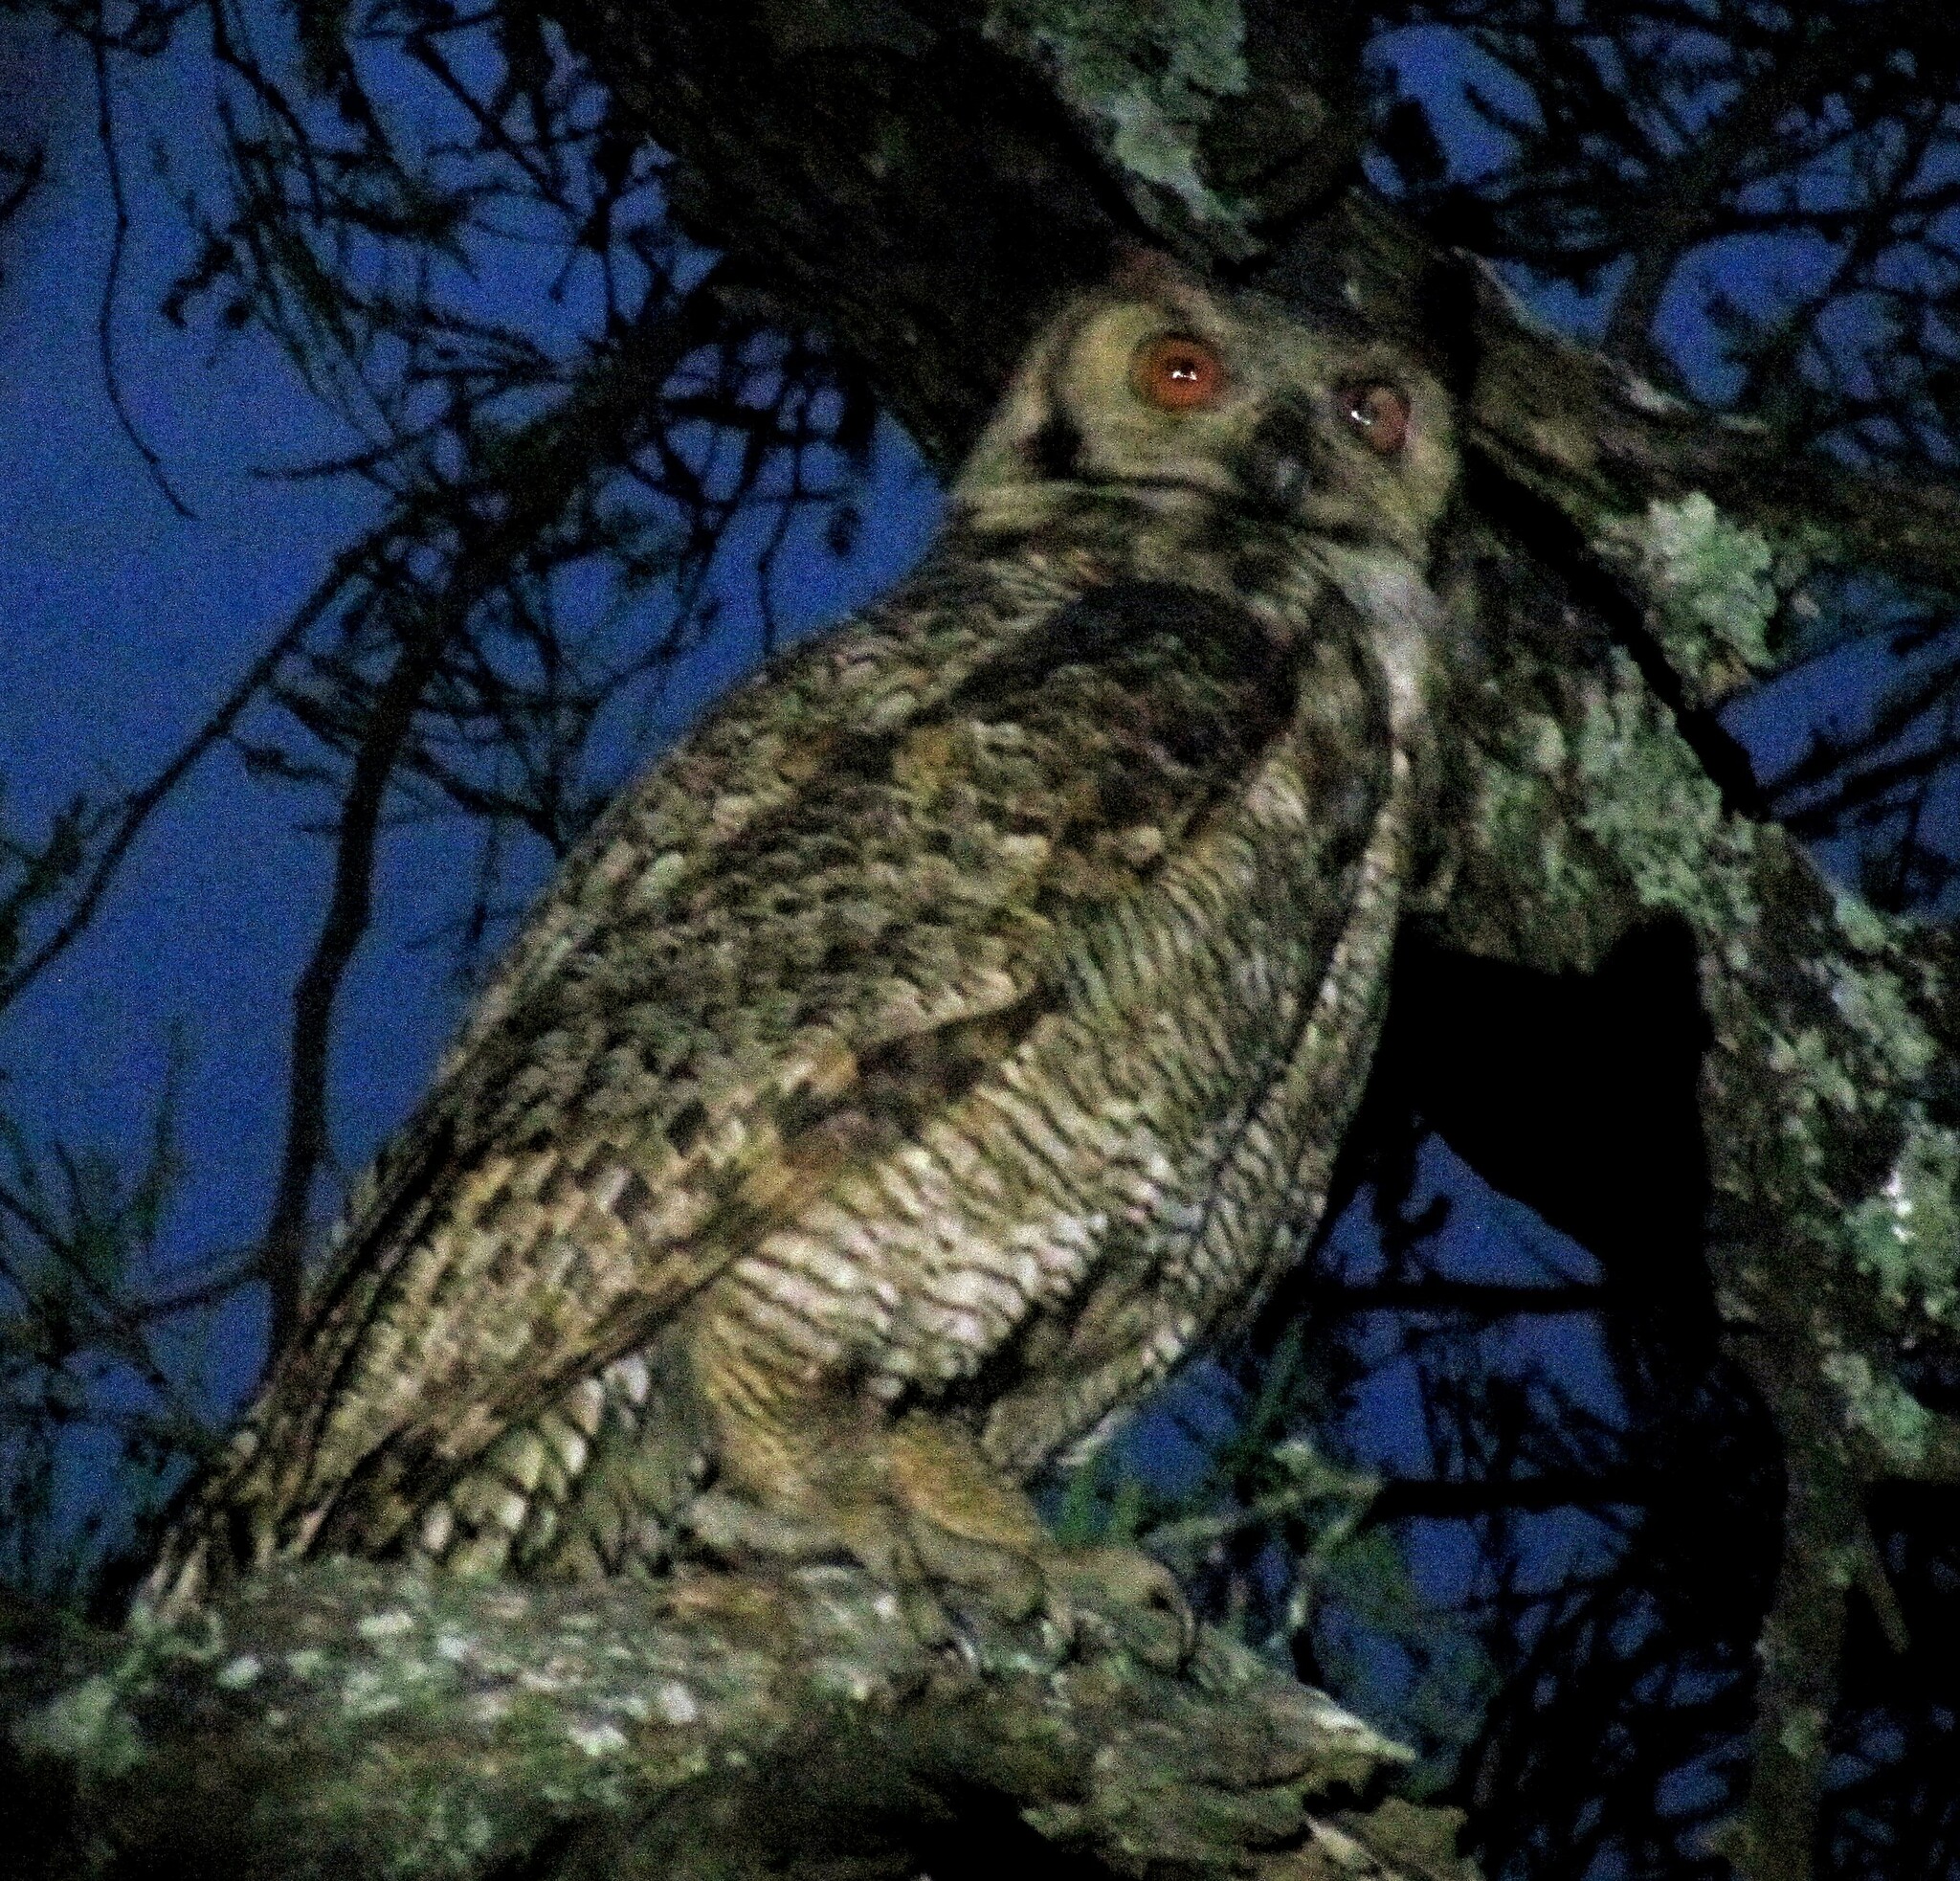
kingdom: Animalia
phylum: Chordata
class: Aves
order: Strigiformes
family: Strigidae
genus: Bubo
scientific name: Bubo virginianus
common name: Great horned owl
